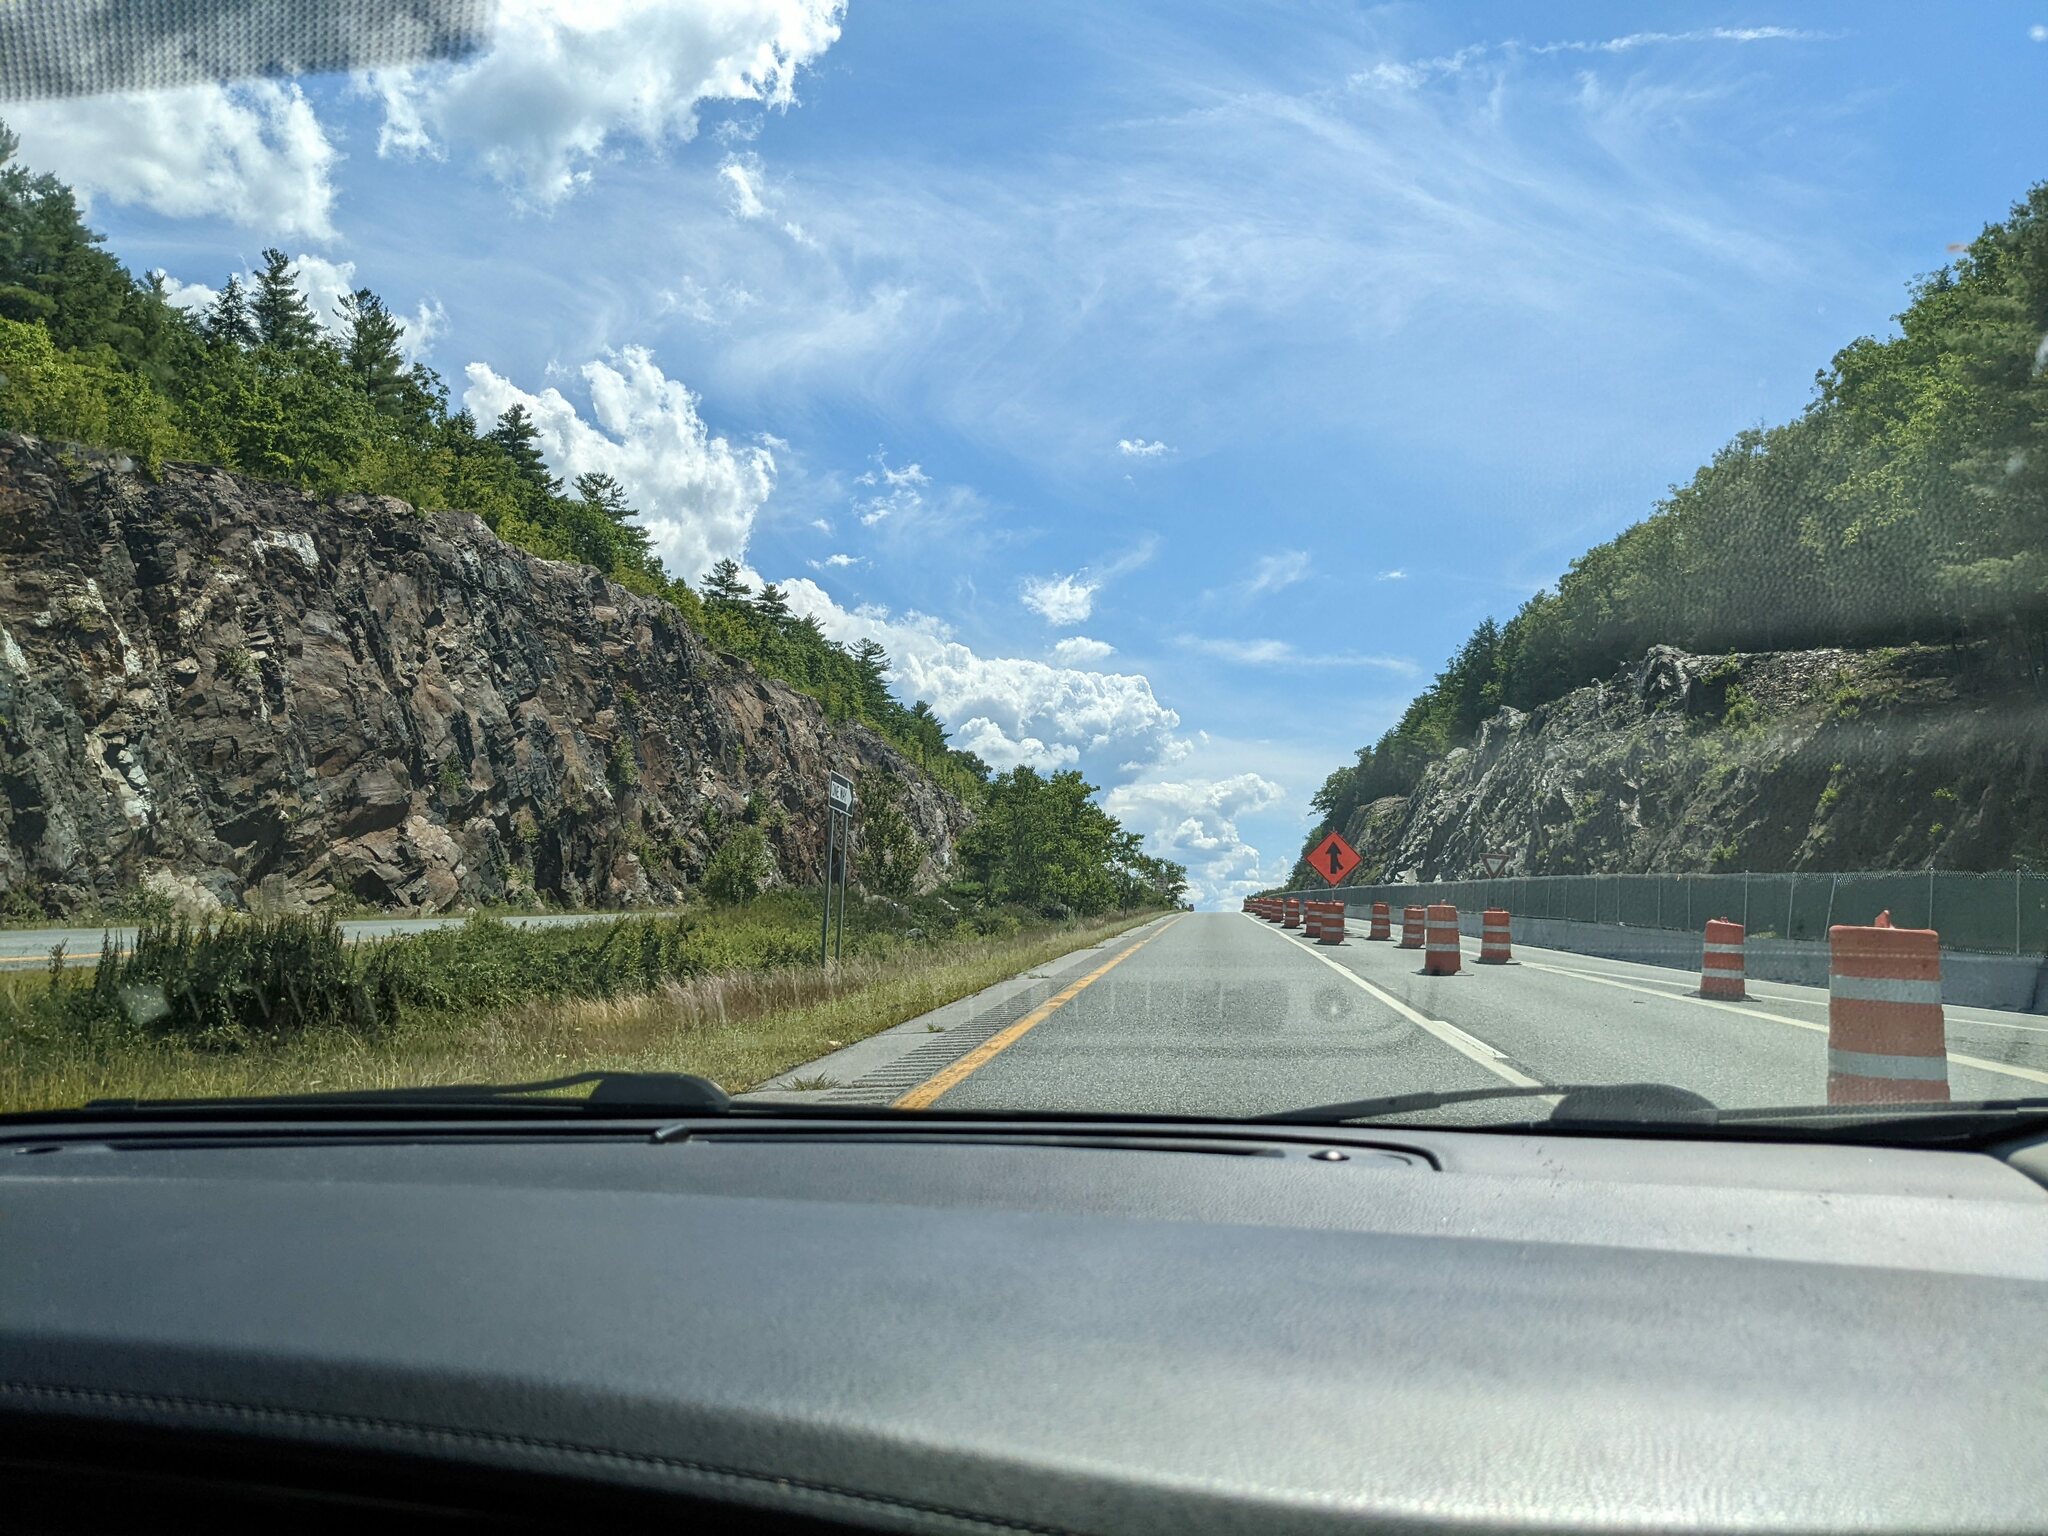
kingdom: Plantae
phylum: Tracheophyta
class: Pinopsida
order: Pinales
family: Pinaceae
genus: Pinus
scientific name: Pinus strobus
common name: Weymouth pine
